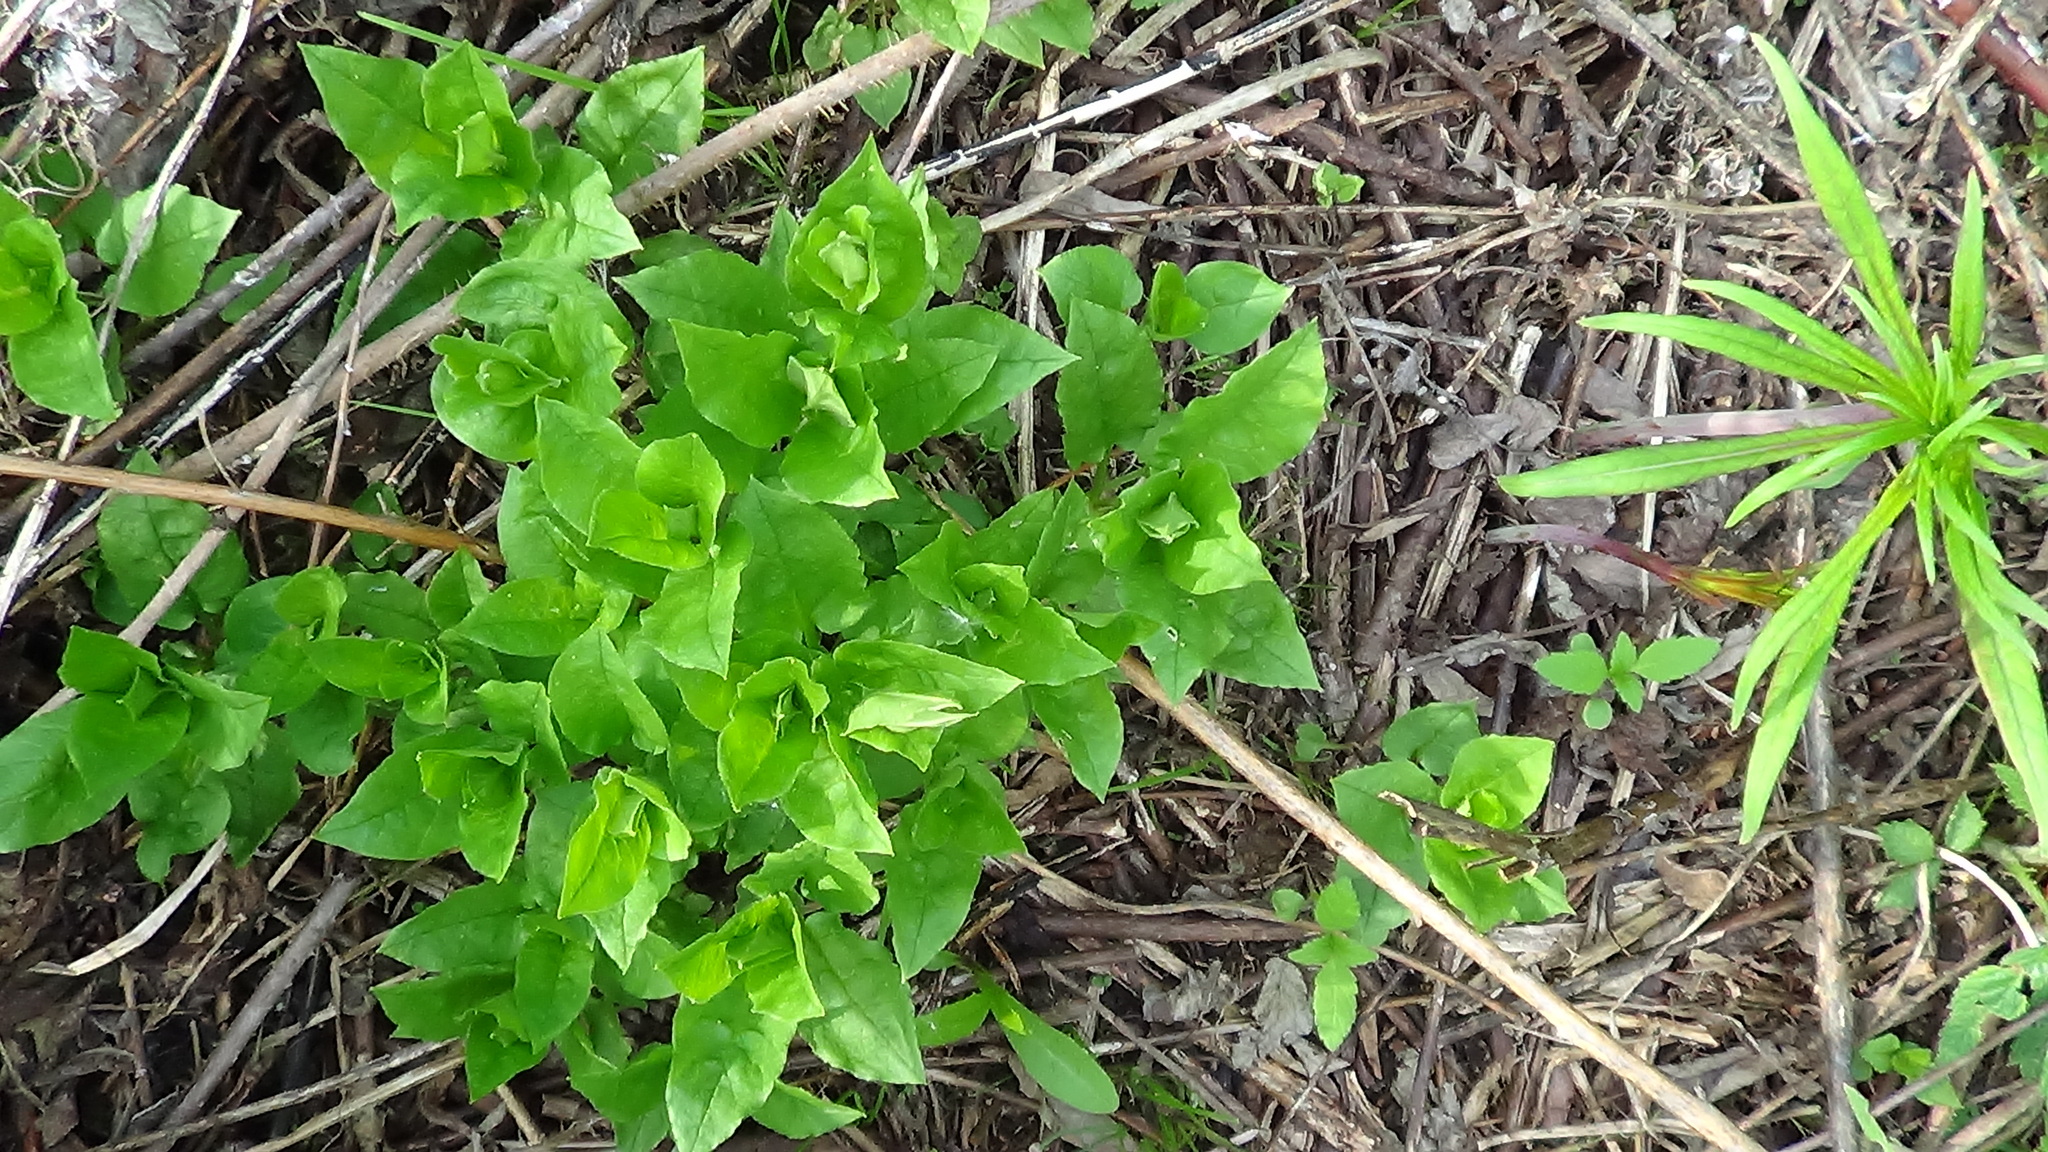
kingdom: Plantae
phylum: Tracheophyta
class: Magnoliopsida
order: Caryophyllales
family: Caryophyllaceae
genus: Stellaria
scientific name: Stellaria media
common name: Common chickweed
